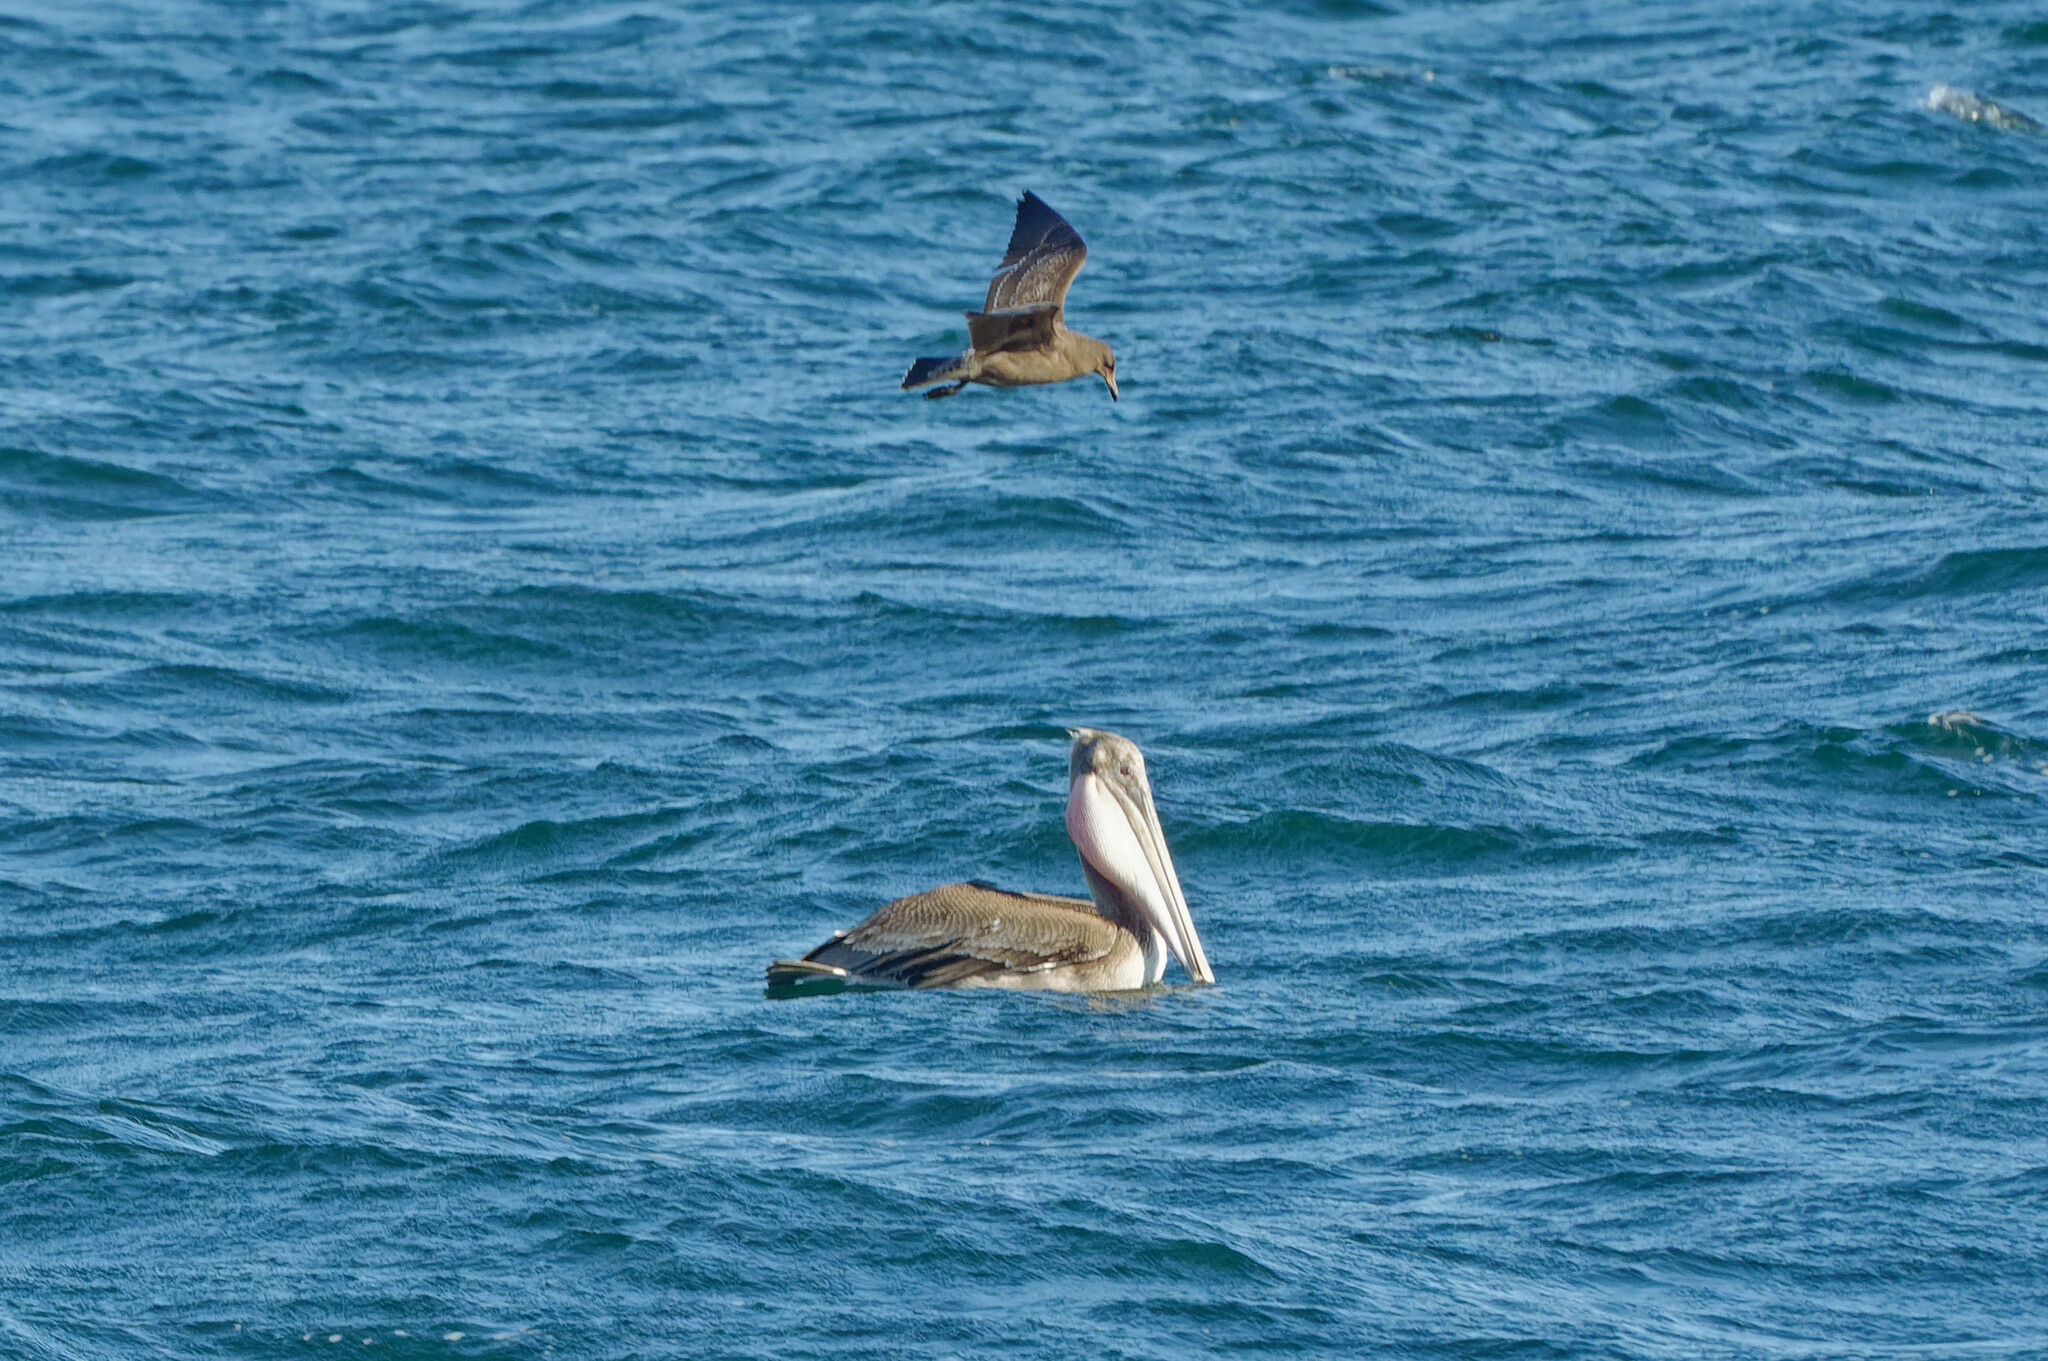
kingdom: Animalia
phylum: Chordata
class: Aves
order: Pelecaniformes
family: Pelecanidae
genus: Pelecanus
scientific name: Pelecanus occidentalis
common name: Brown pelican
